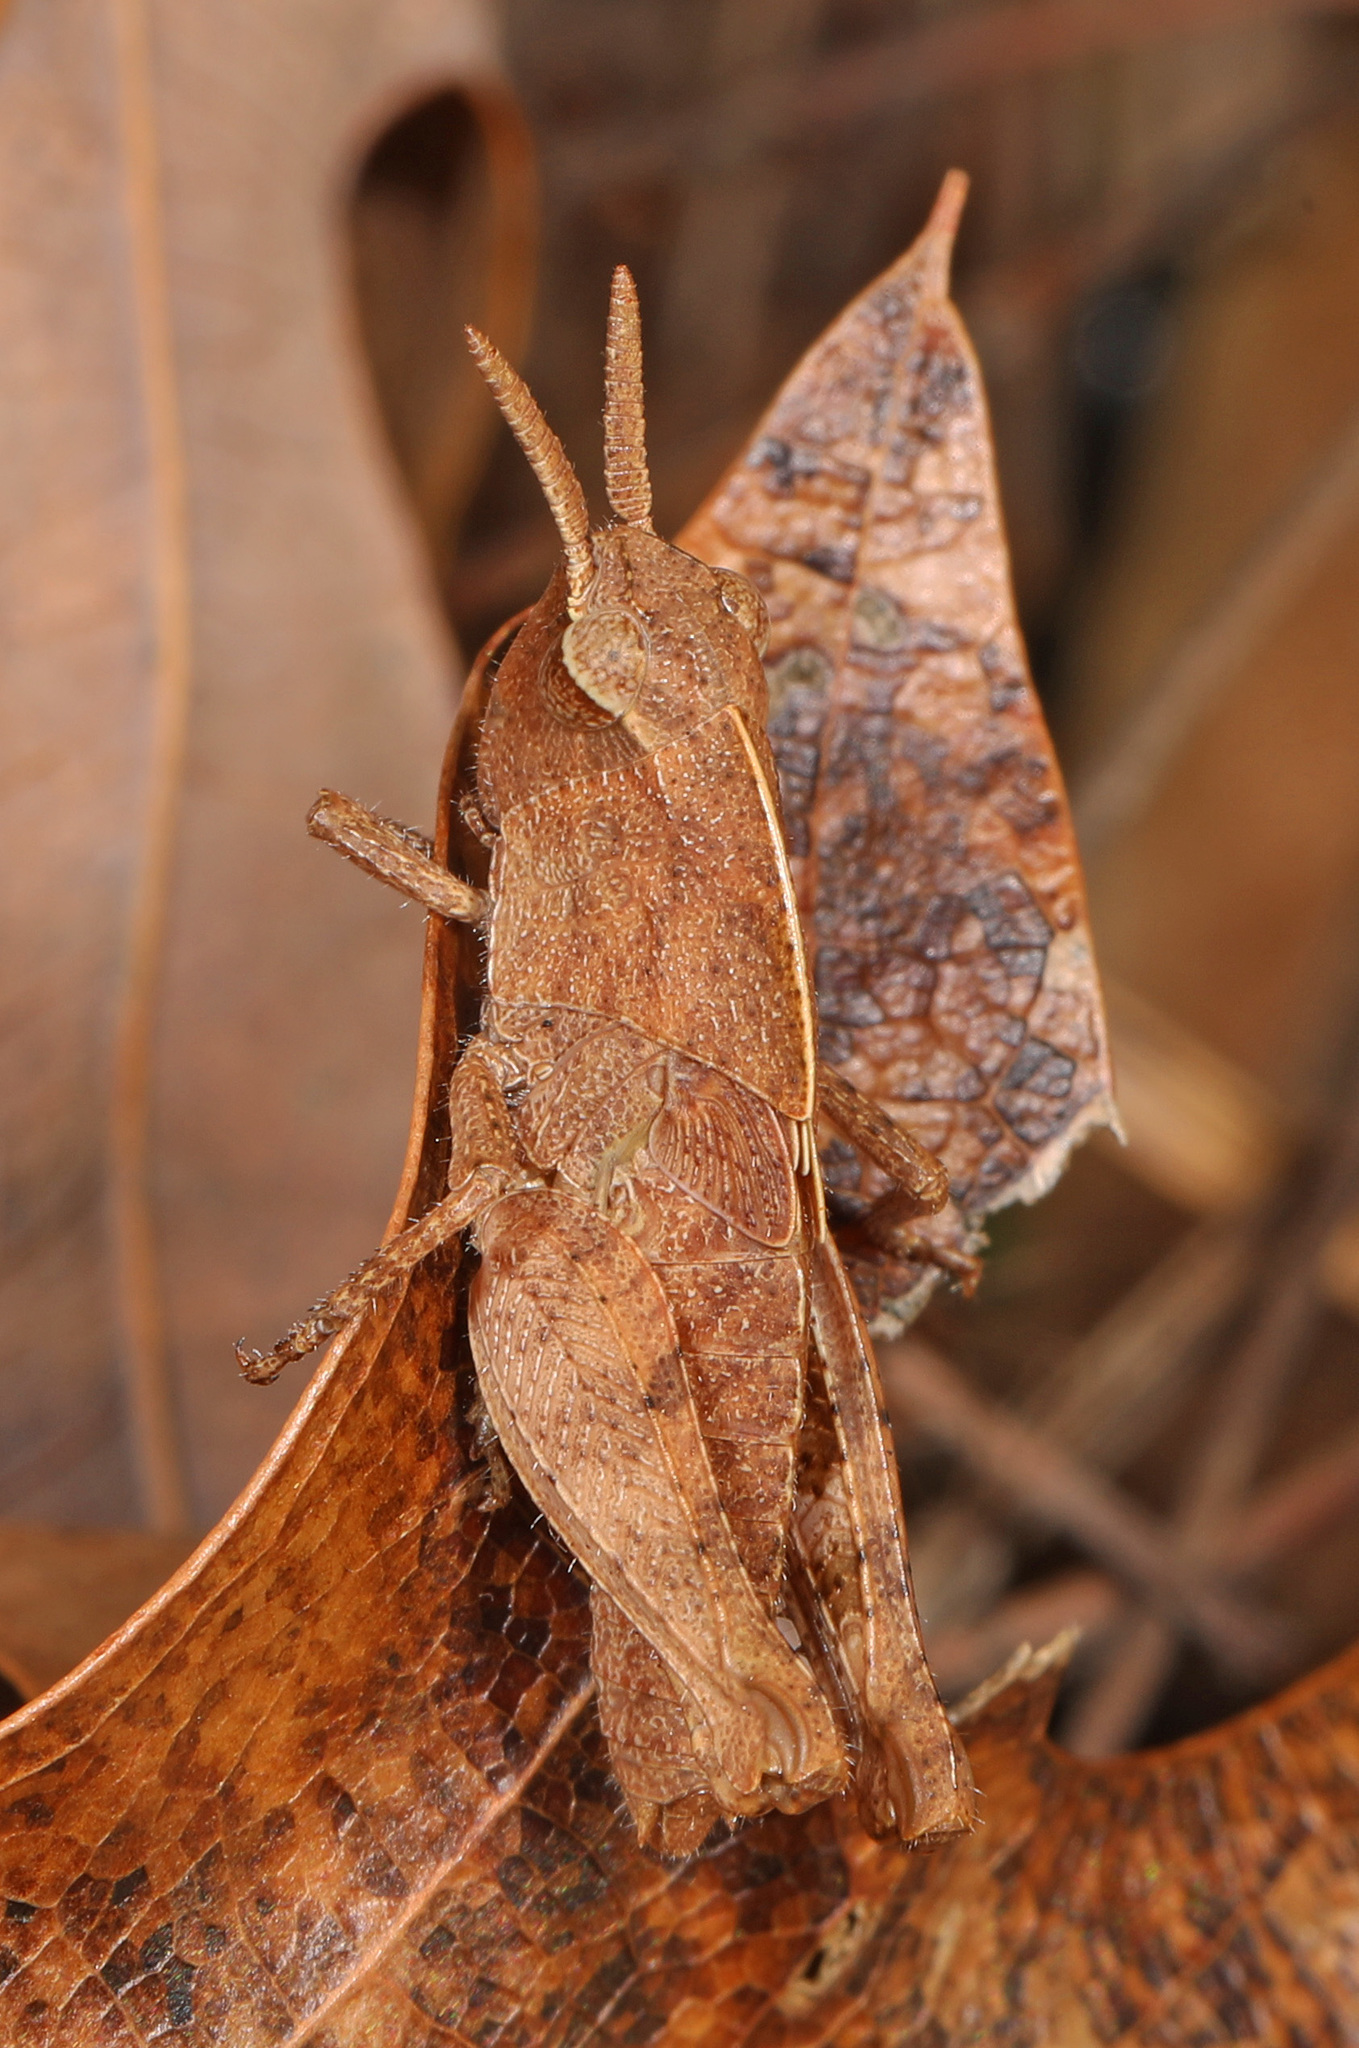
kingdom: Animalia
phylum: Arthropoda
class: Insecta
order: Orthoptera
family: Acrididae
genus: Chortophaga
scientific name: Chortophaga viridifasciata
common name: Green-striped grasshopper
